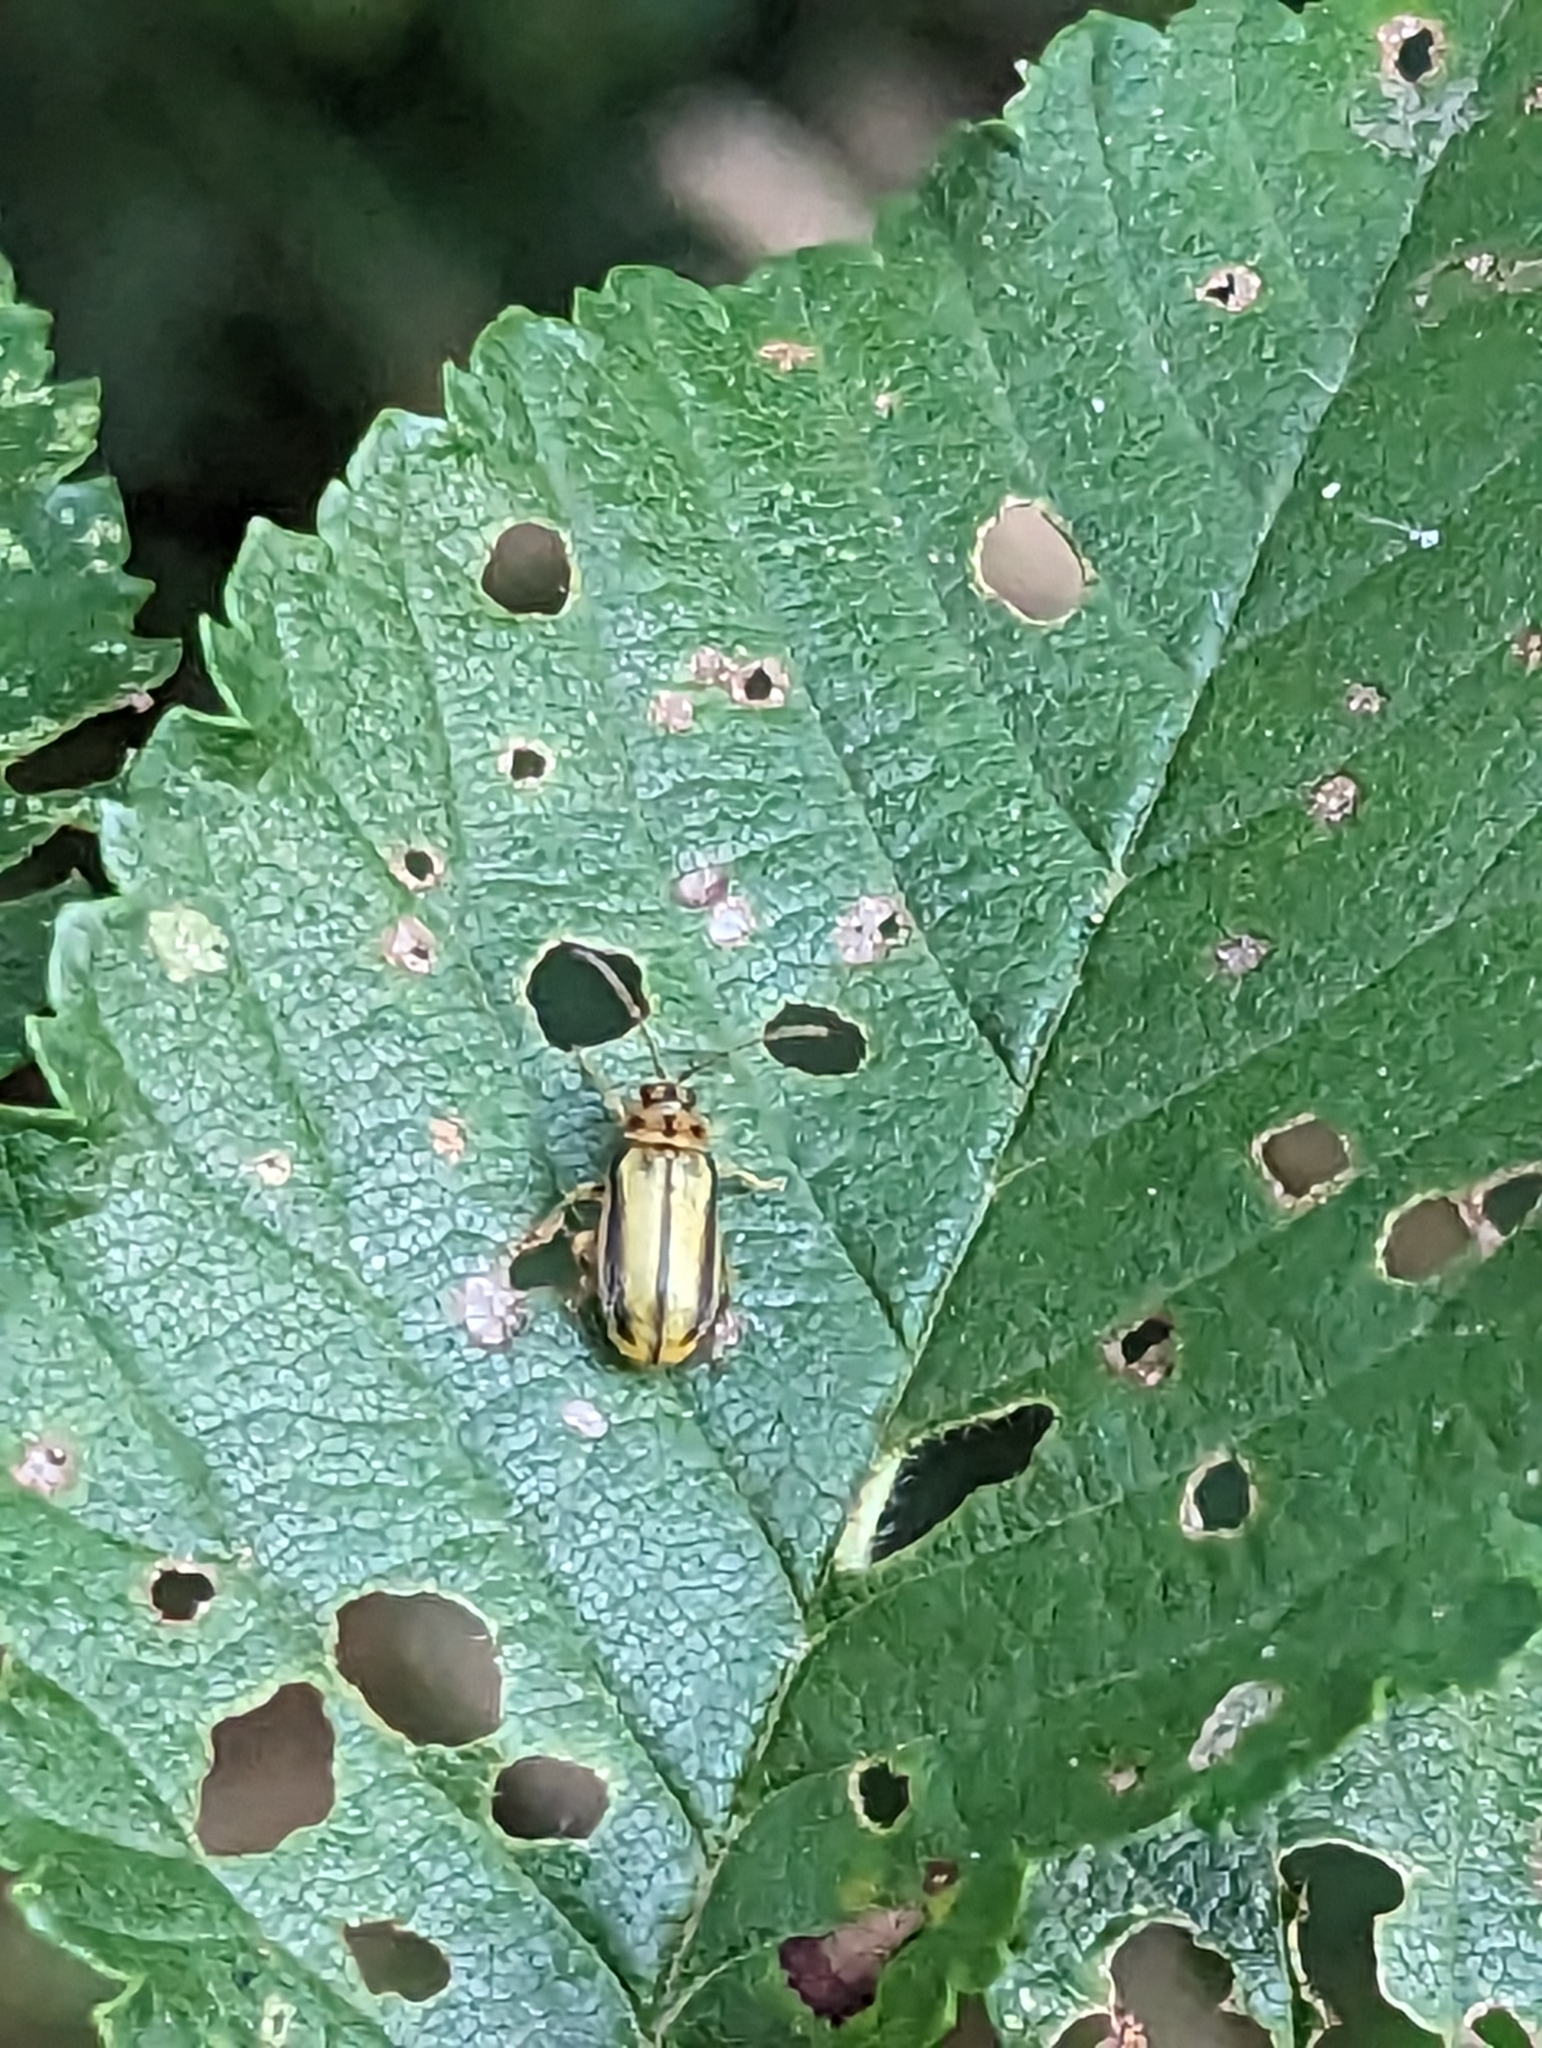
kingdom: Animalia
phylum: Arthropoda
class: Insecta
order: Coleoptera
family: Chrysomelidae
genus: Xanthogaleruca
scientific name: Xanthogaleruca luteola
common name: Elm leaf beetle
